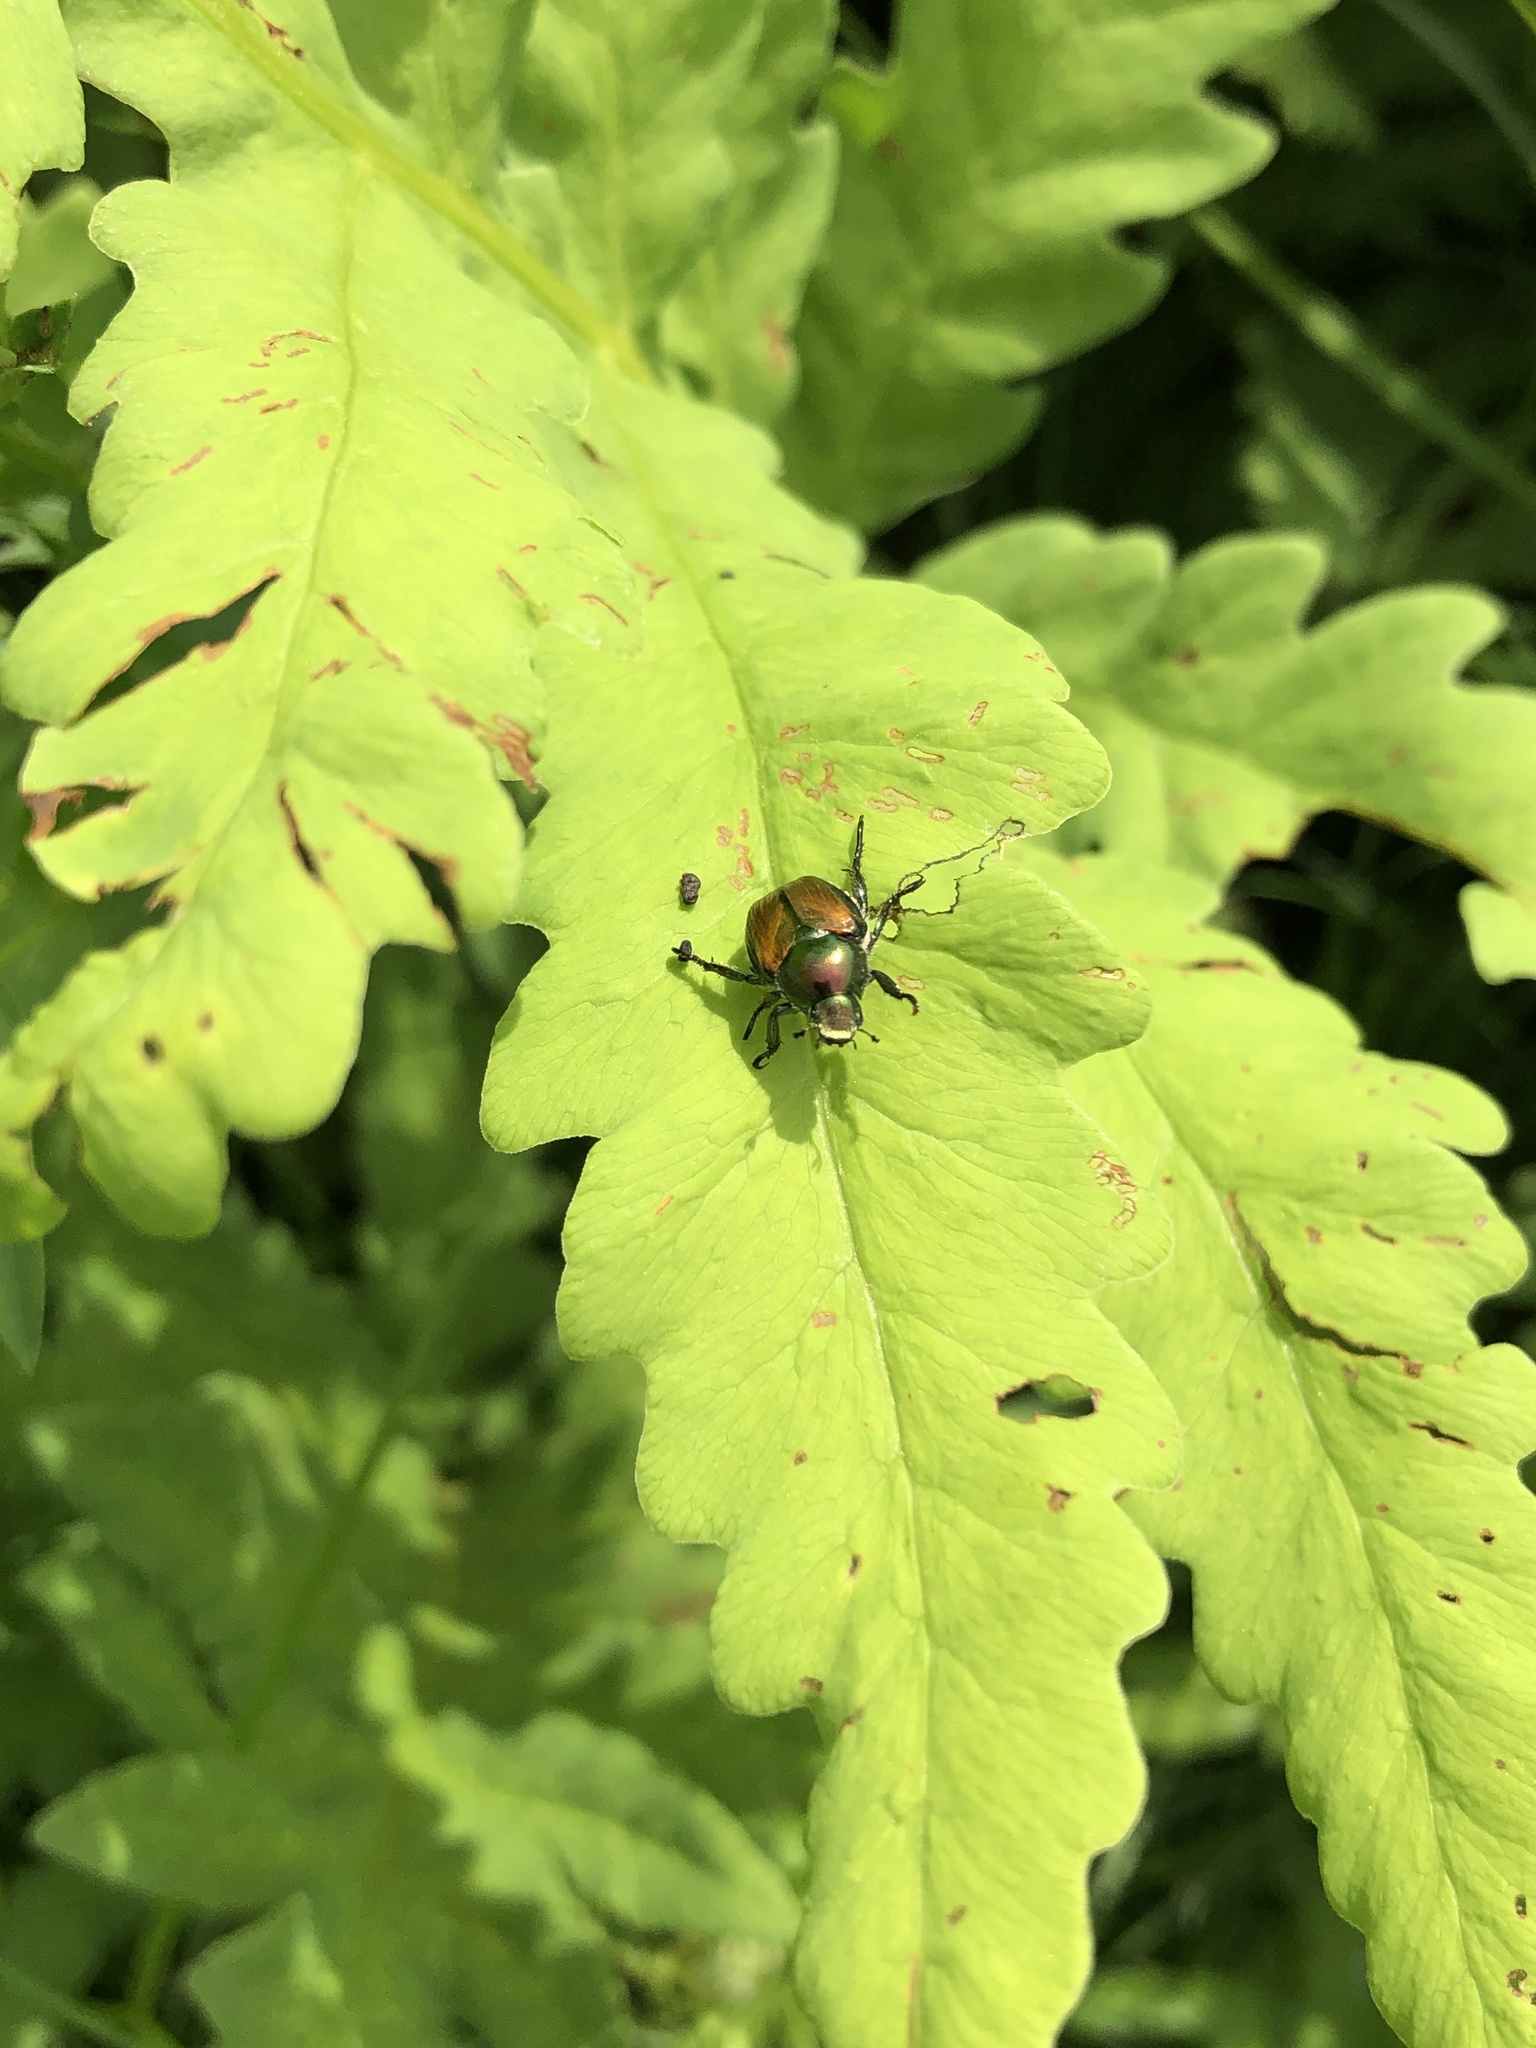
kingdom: Animalia
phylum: Arthropoda
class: Insecta
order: Coleoptera
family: Scarabaeidae
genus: Popillia
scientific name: Popillia japonica
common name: Japanese beetle
